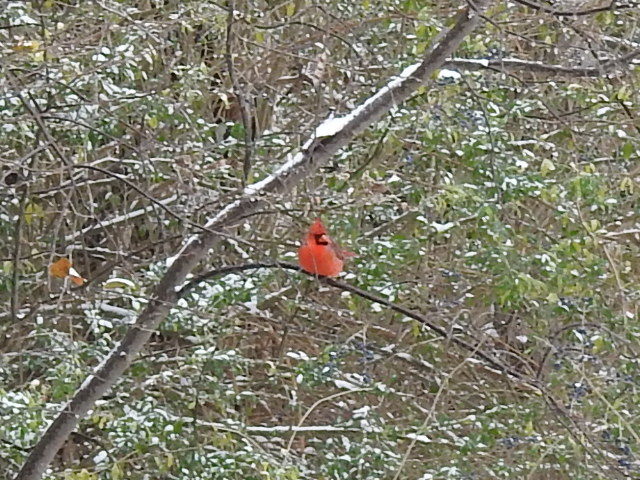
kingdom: Animalia
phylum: Chordata
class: Aves
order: Passeriformes
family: Cardinalidae
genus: Cardinalis
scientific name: Cardinalis cardinalis
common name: Northern cardinal
